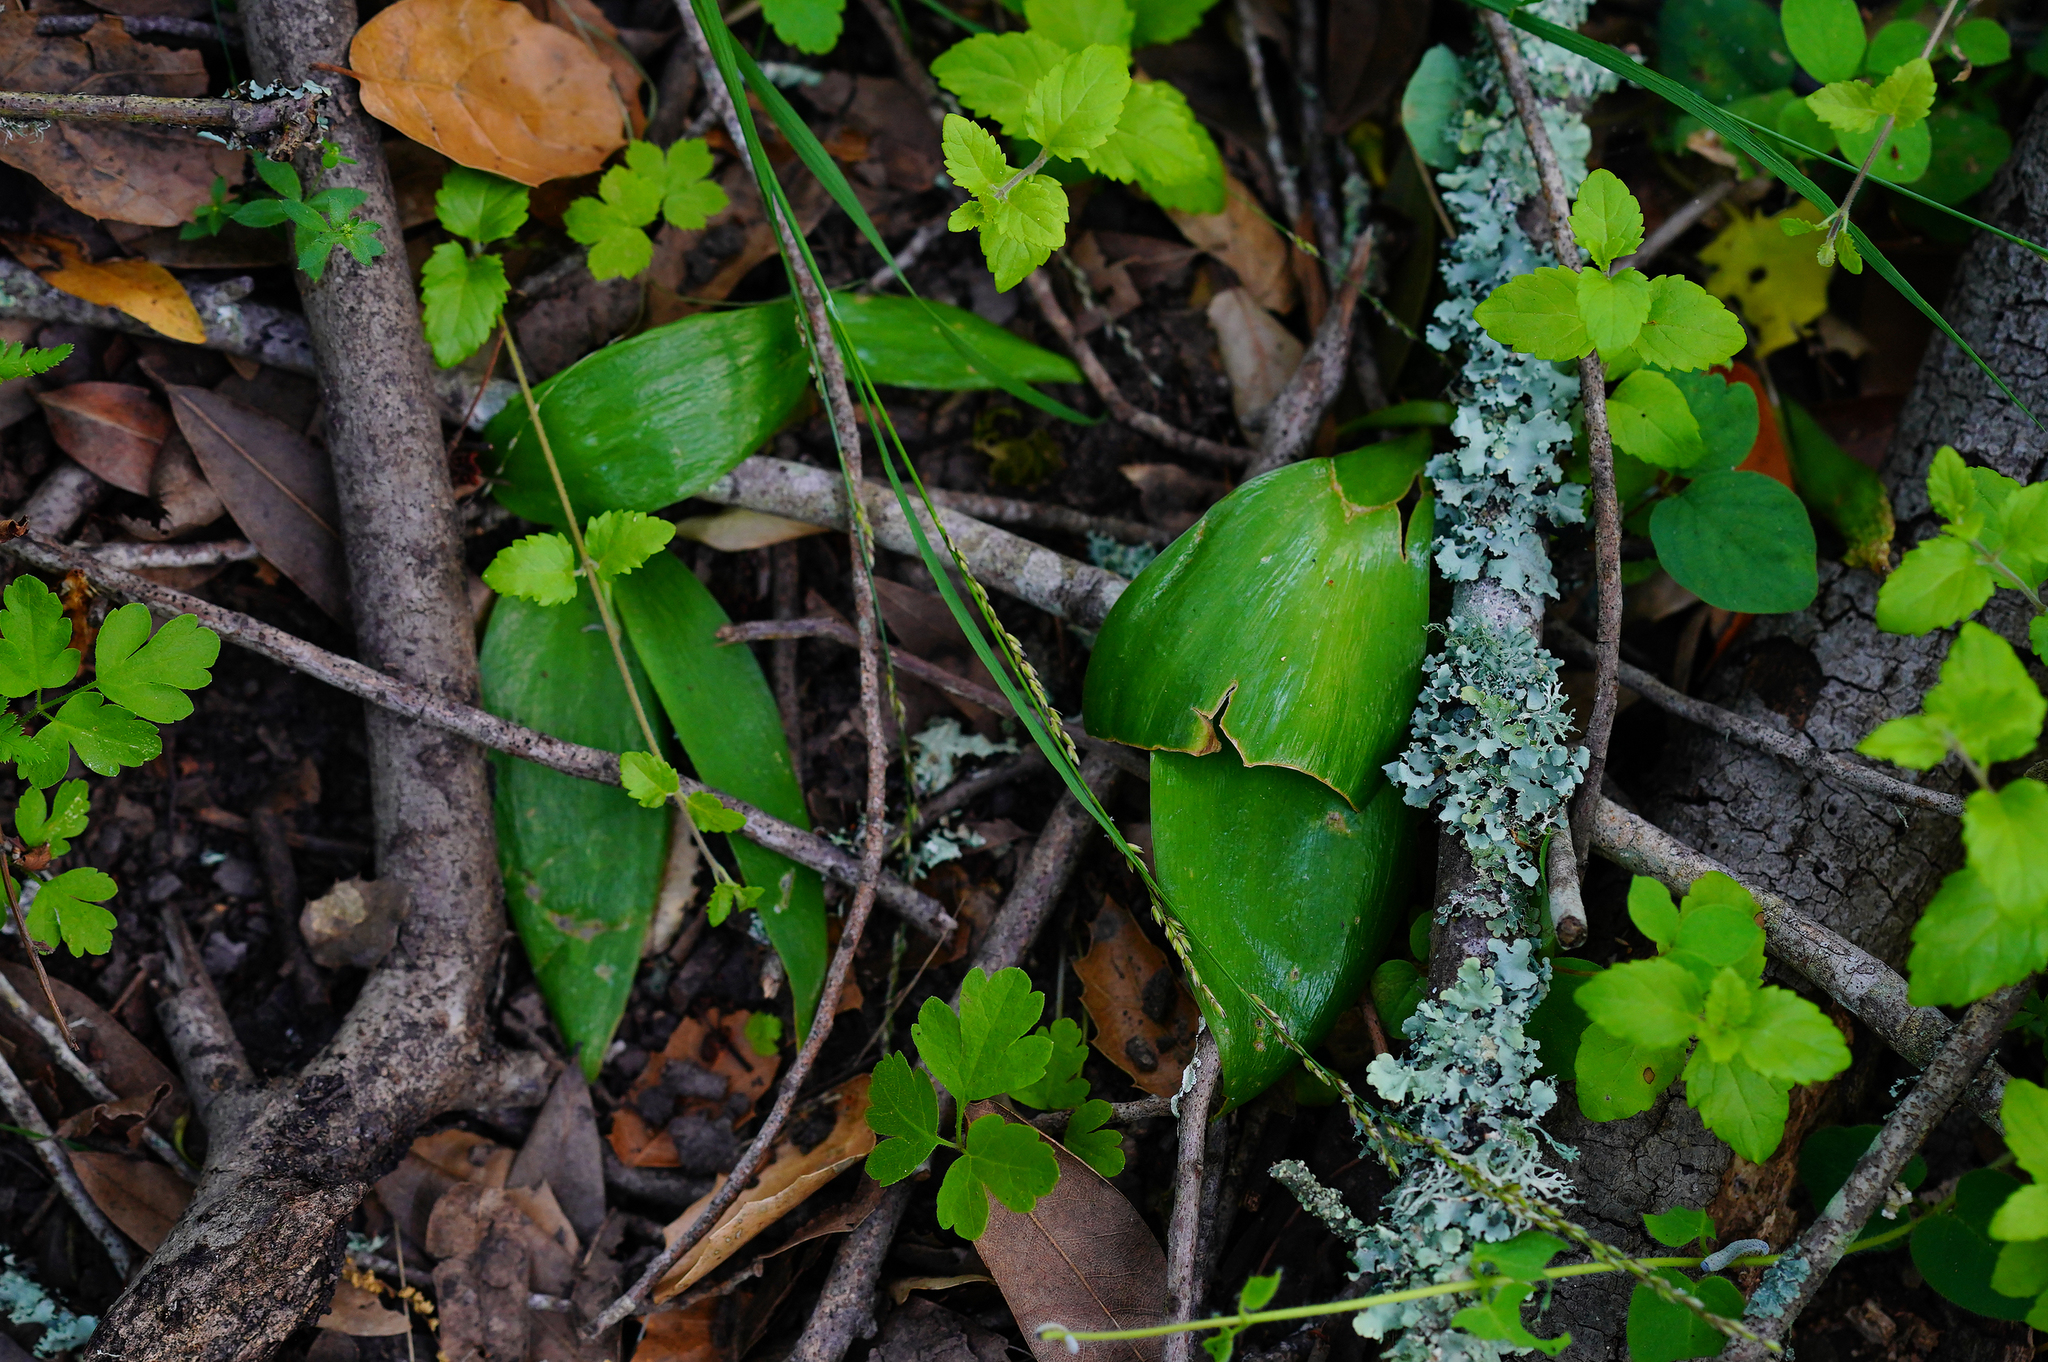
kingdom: Plantae
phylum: Tracheophyta
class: Liliopsida
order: Liliales
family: Liliaceae
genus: Fritillaria
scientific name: Fritillaria affinis
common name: Ojai fritillary
